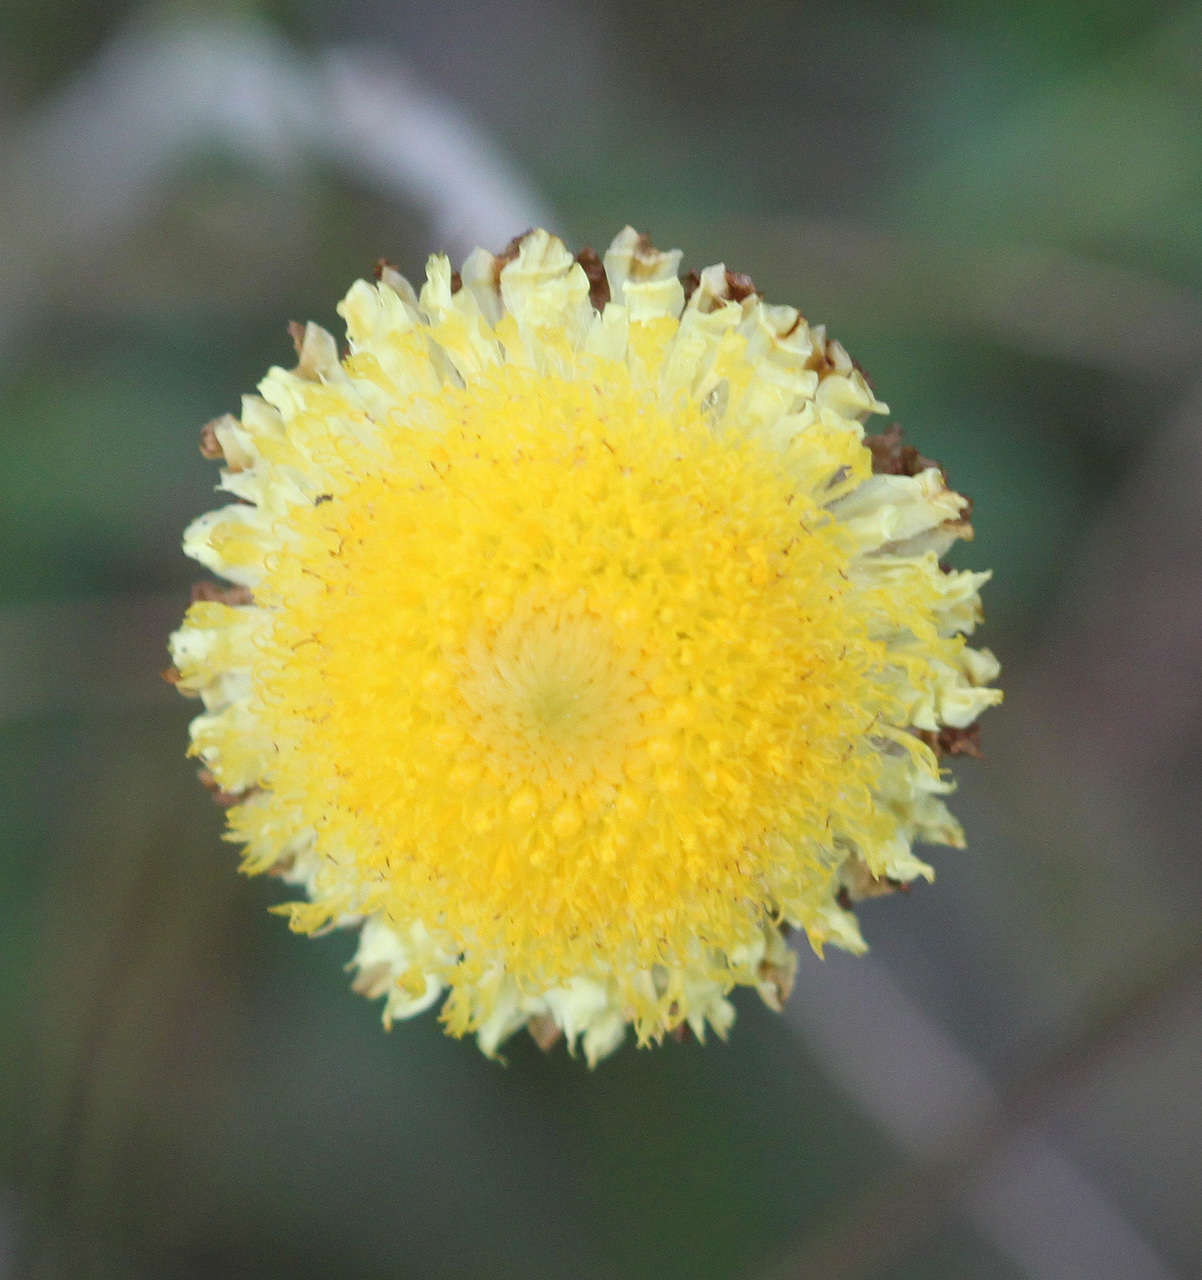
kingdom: Plantae
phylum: Tracheophyta
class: Magnoliopsida
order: Asterales
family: Asteraceae
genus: Coronidium
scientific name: Coronidium scorpioides
